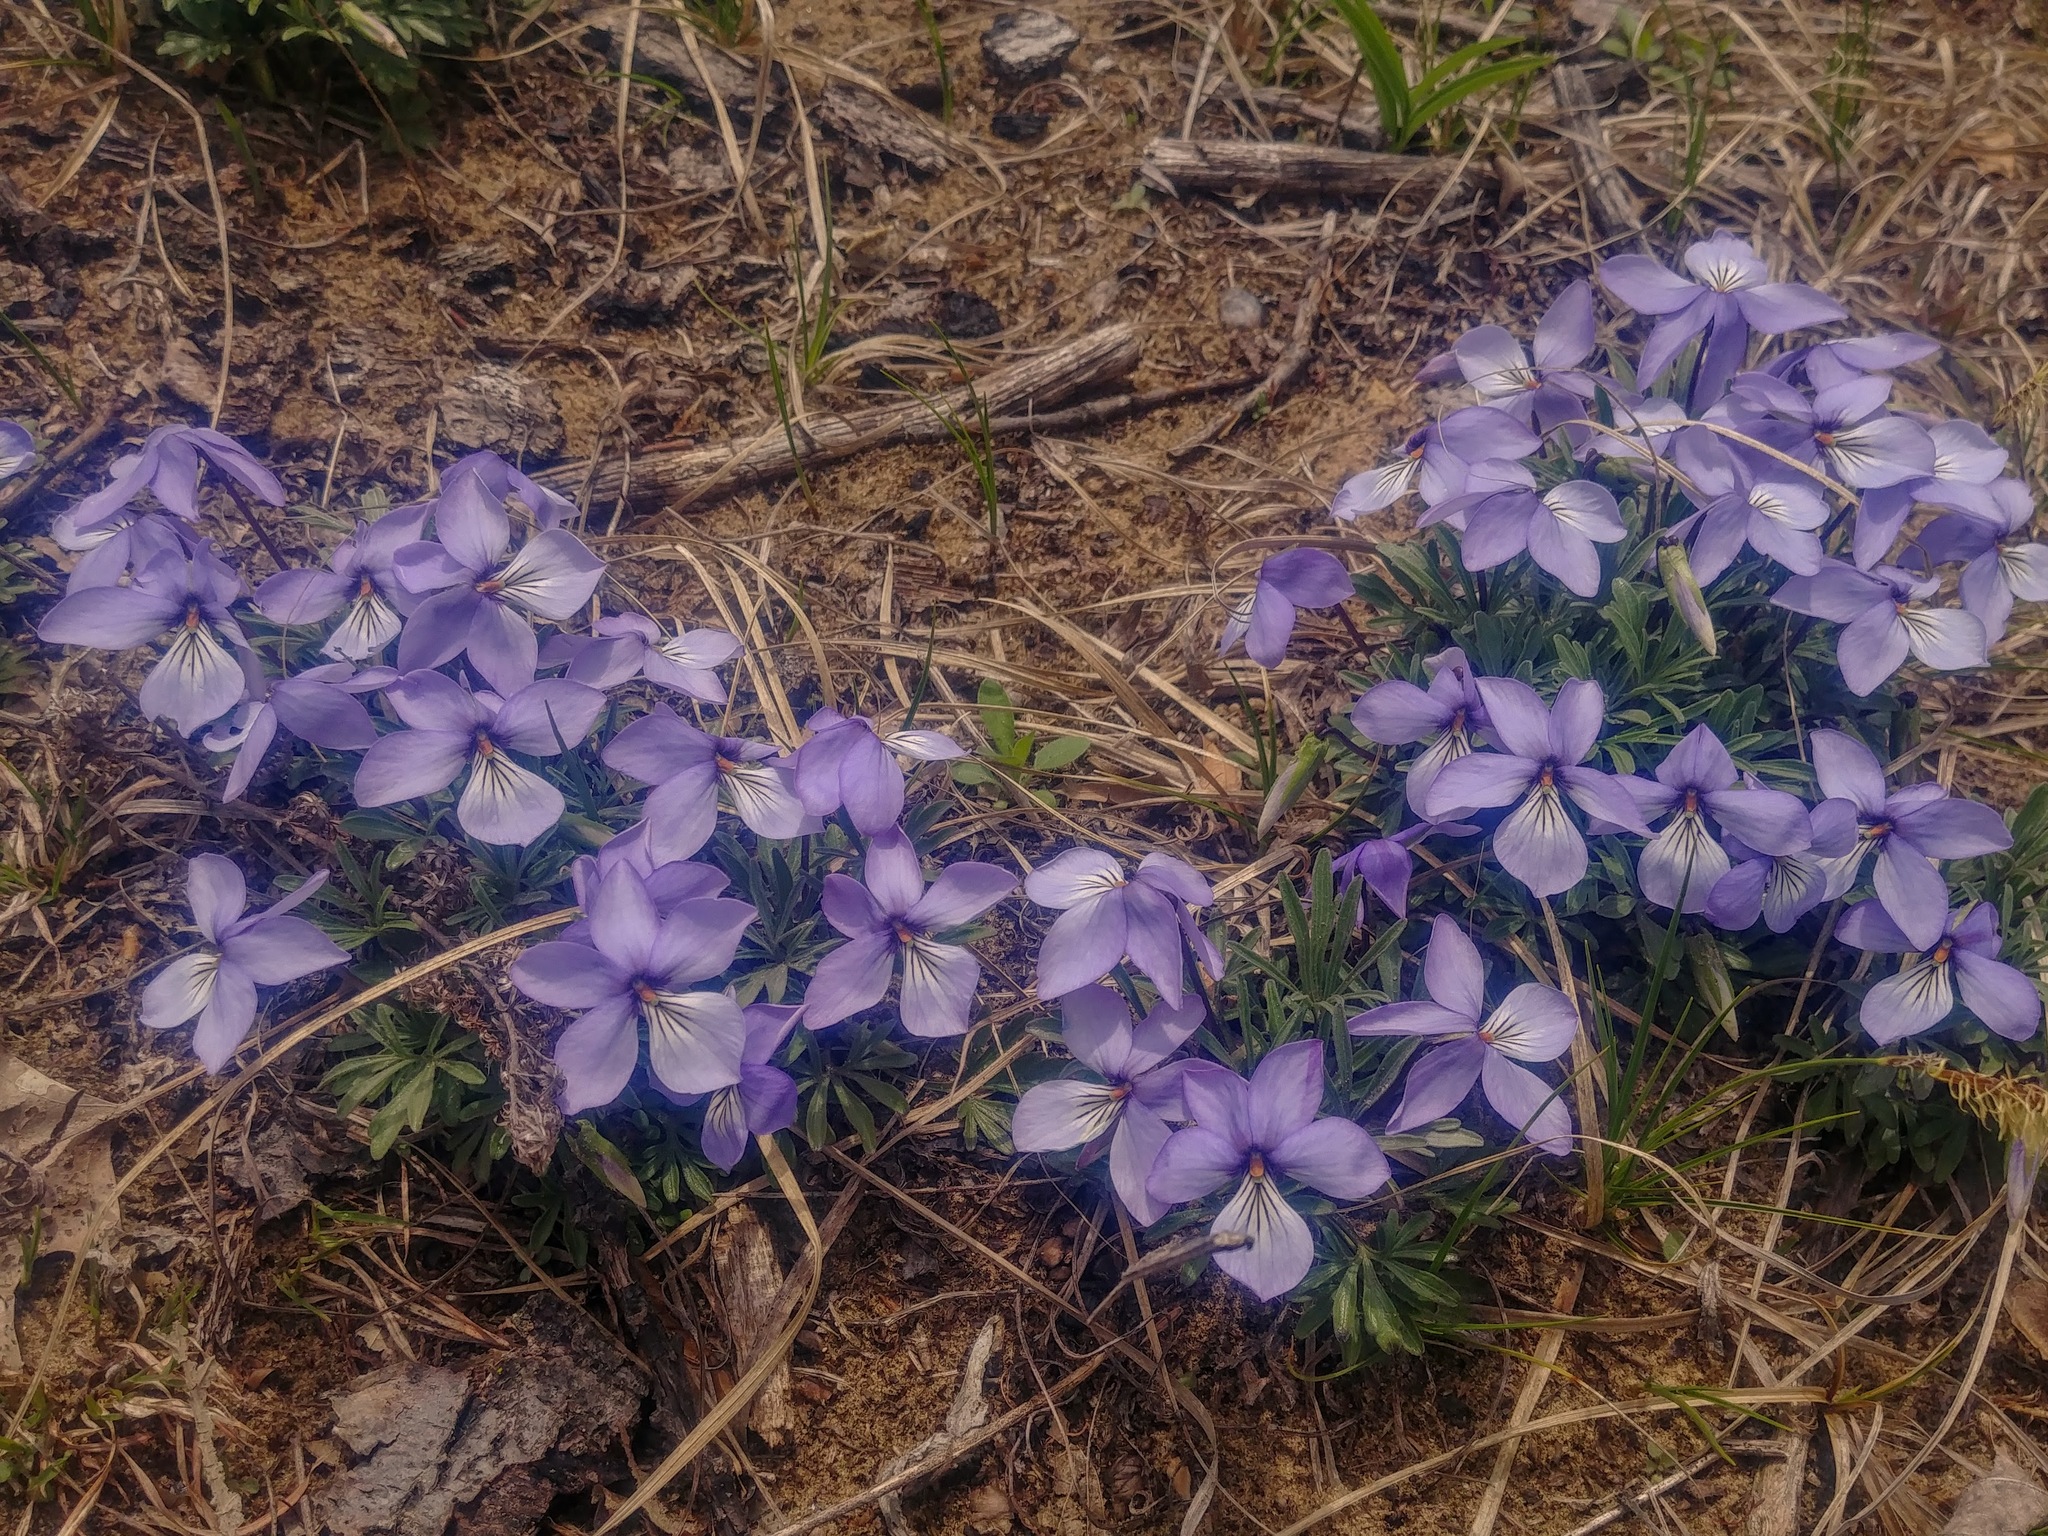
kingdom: Plantae
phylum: Tracheophyta
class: Magnoliopsida
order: Malpighiales
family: Violaceae
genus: Viola
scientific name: Viola pedata
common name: Pansy violet
